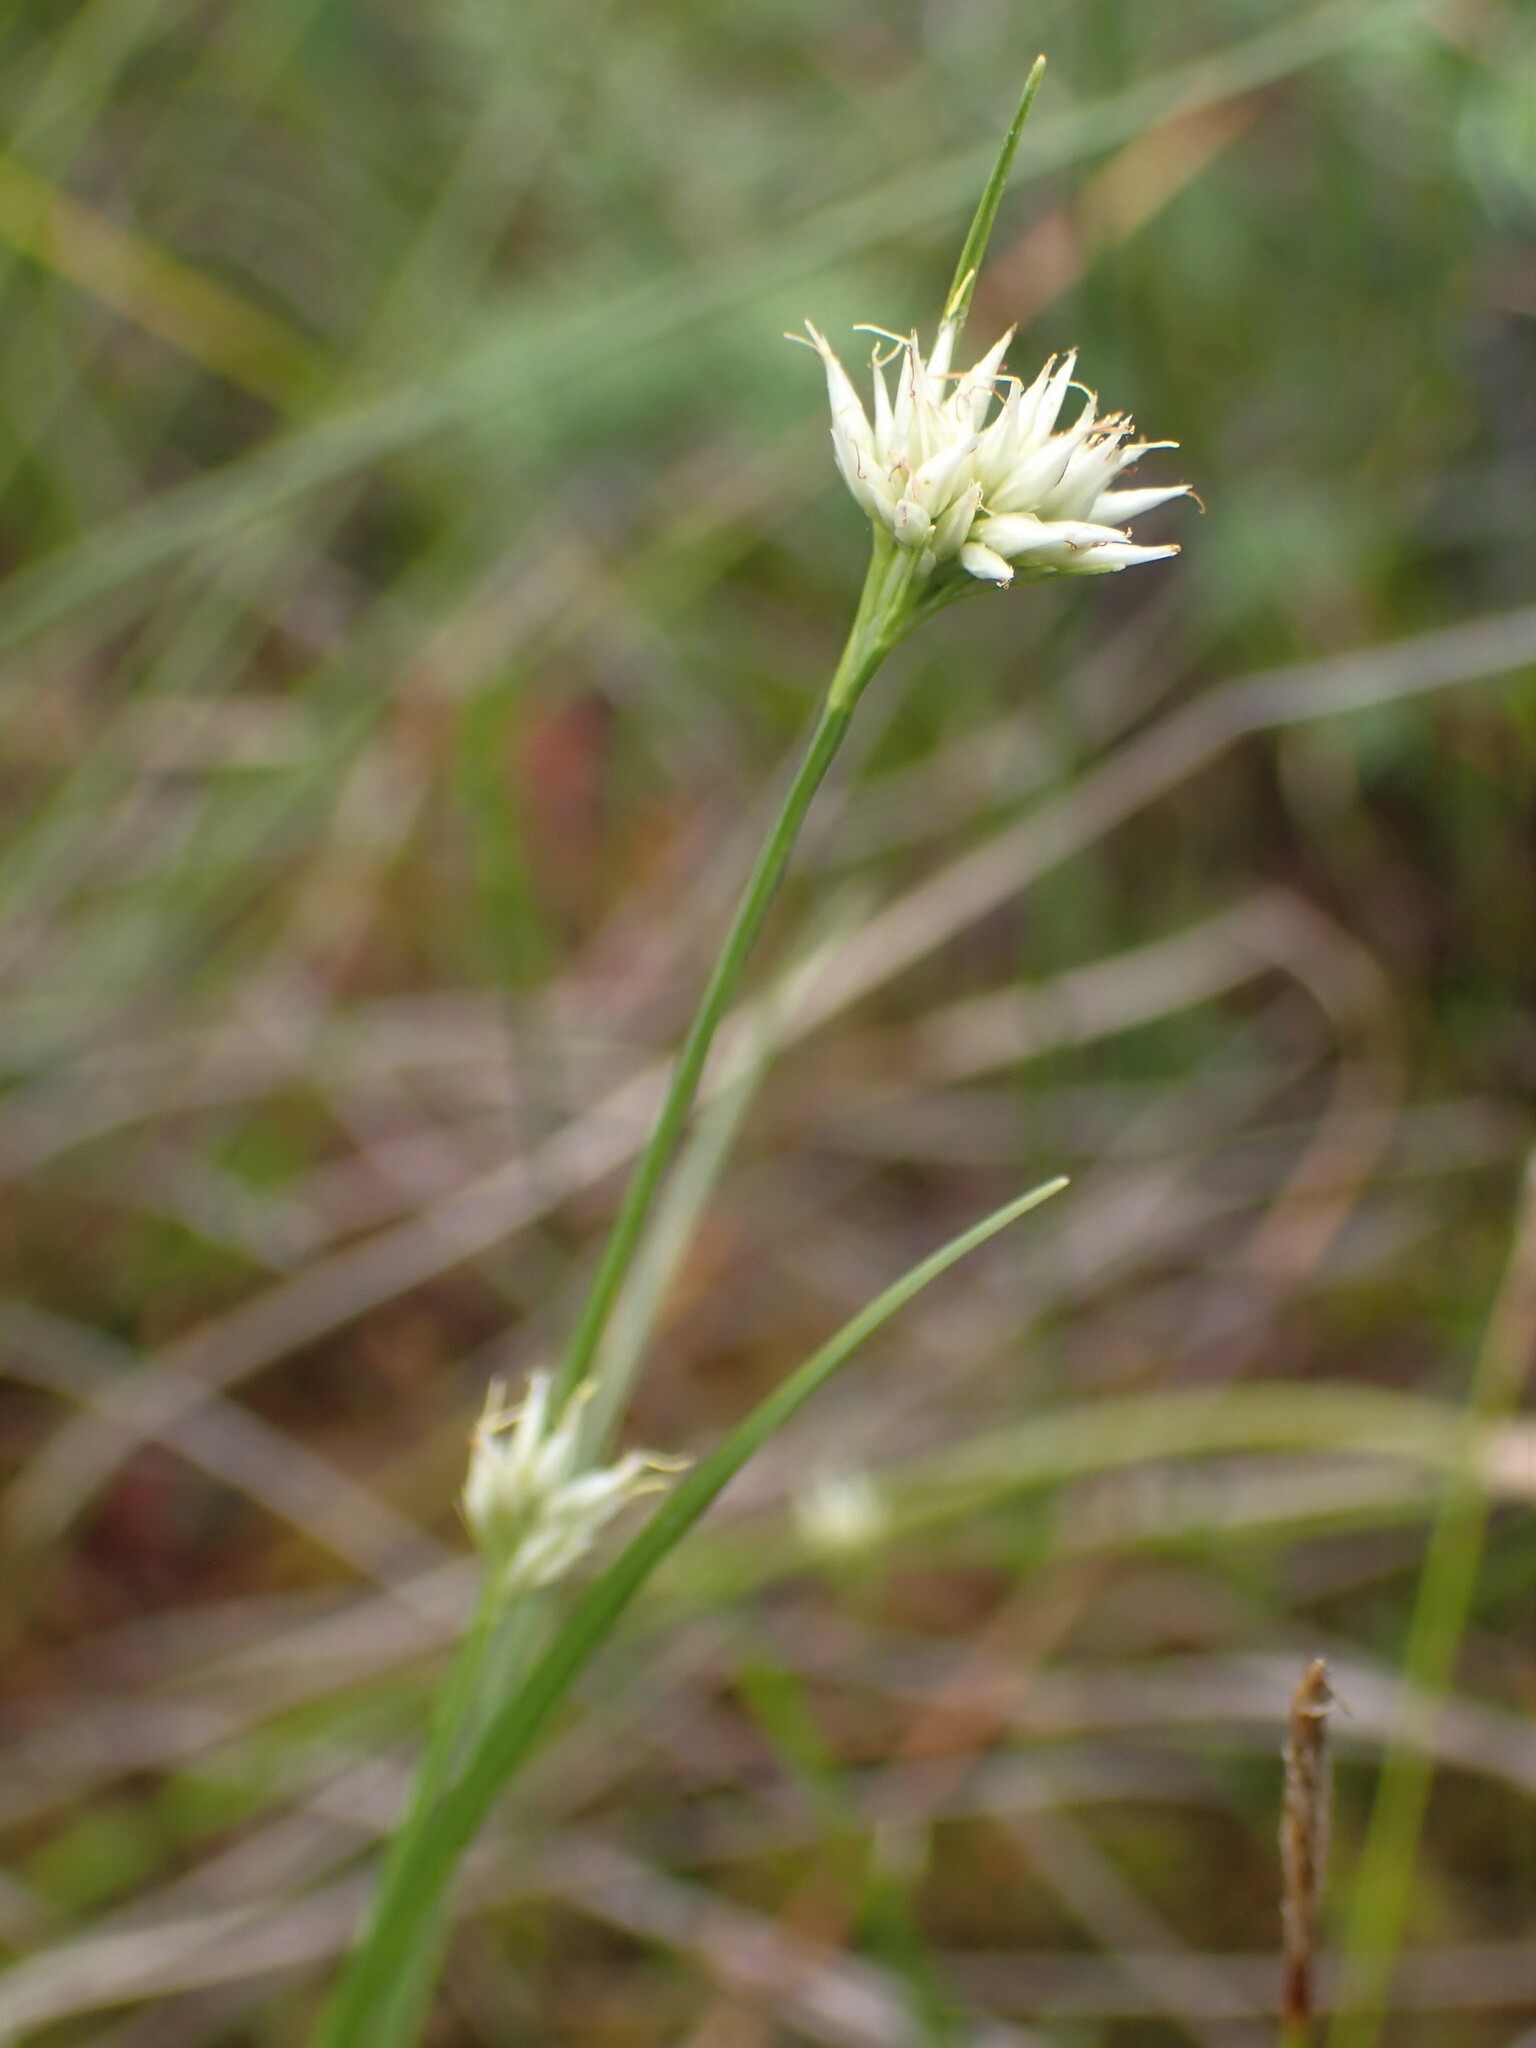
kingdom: Plantae
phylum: Tracheophyta
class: Liliopsida
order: Poales
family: Cyperaceae
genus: Rhynchospora
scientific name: Rhynchospora alba
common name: White beak-sedge
